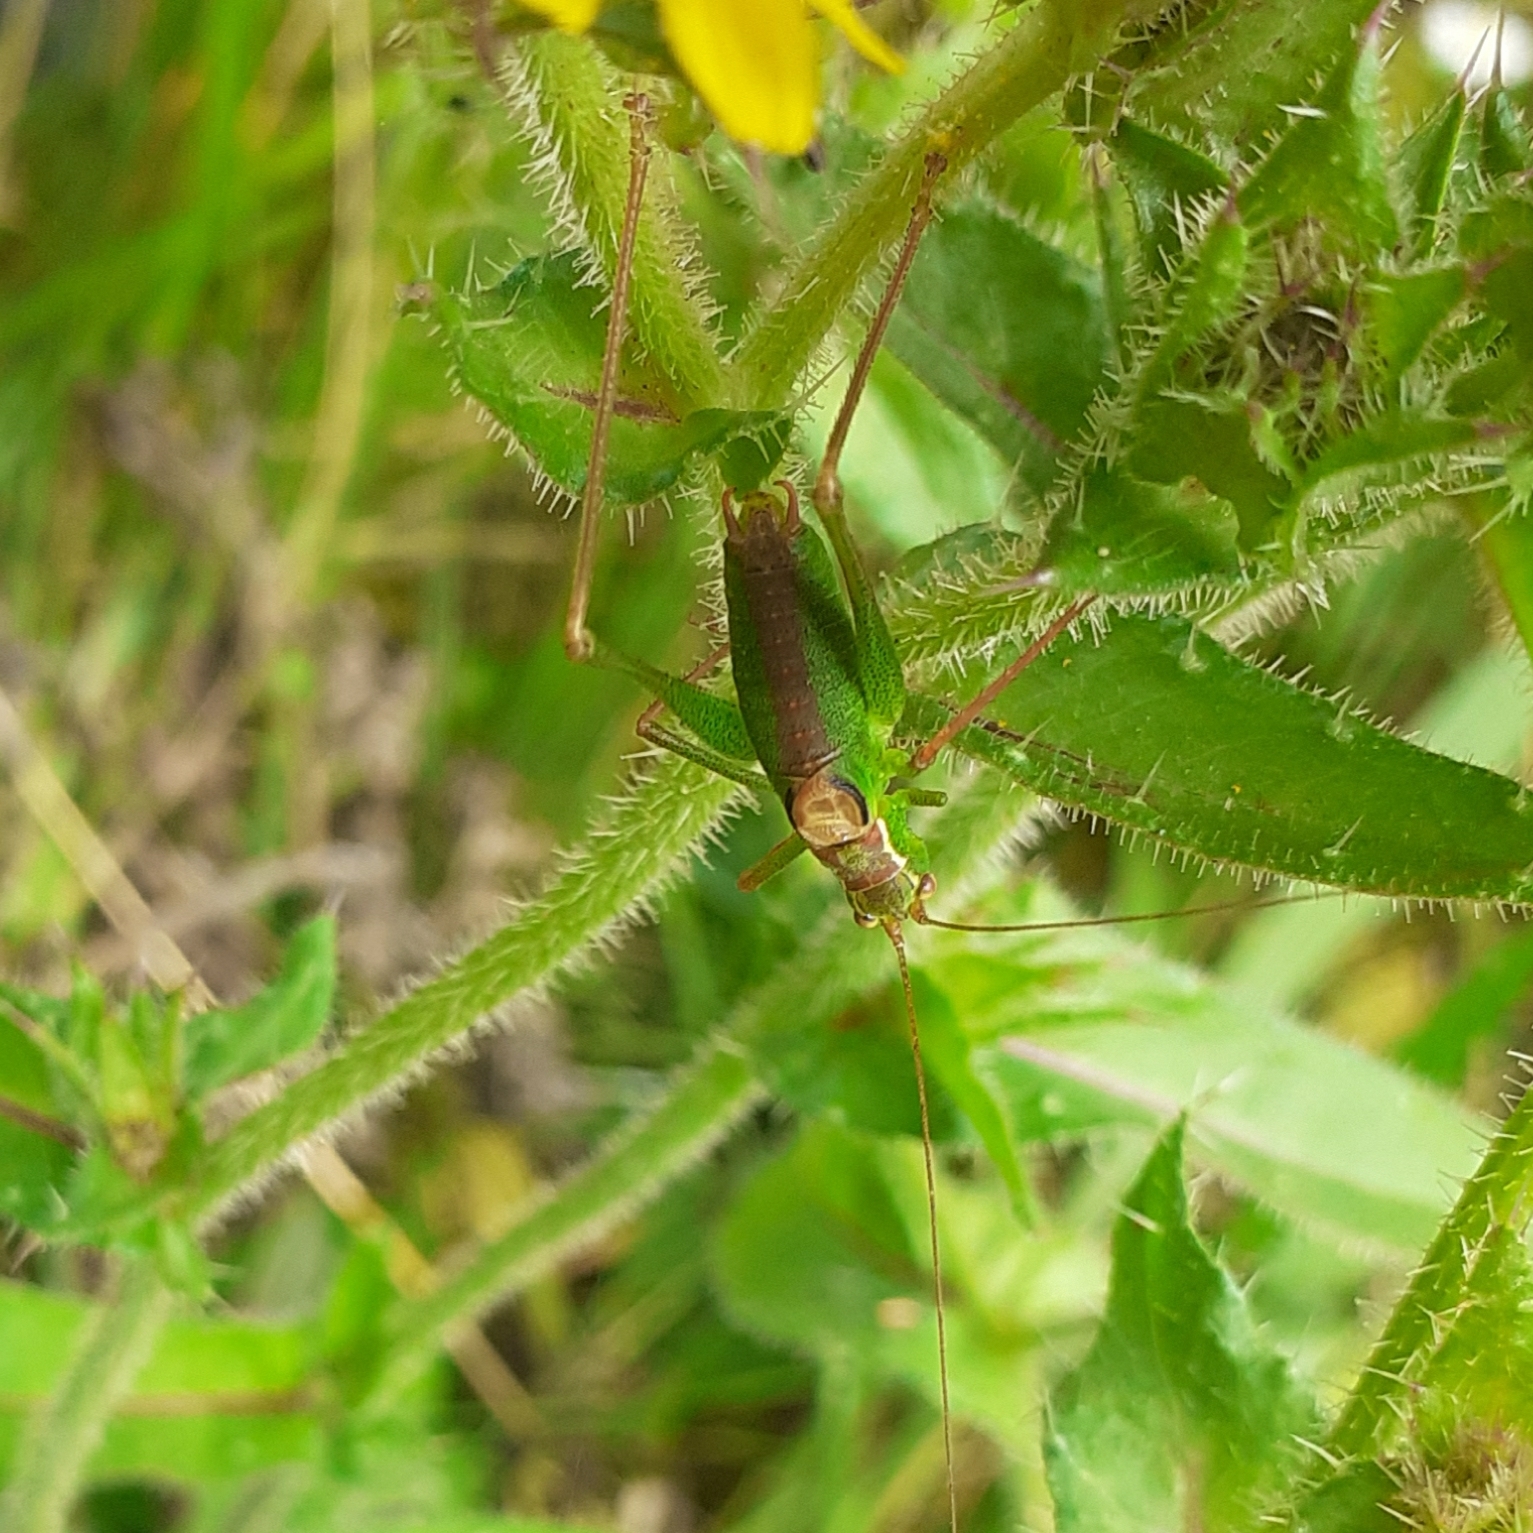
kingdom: Animalia
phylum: Arthropoda
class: Insecta
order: Orthoptera
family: Tettigoniidae
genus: Leptophyes
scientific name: Leptophyes punctatissima
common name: Speckled bush-cricket
